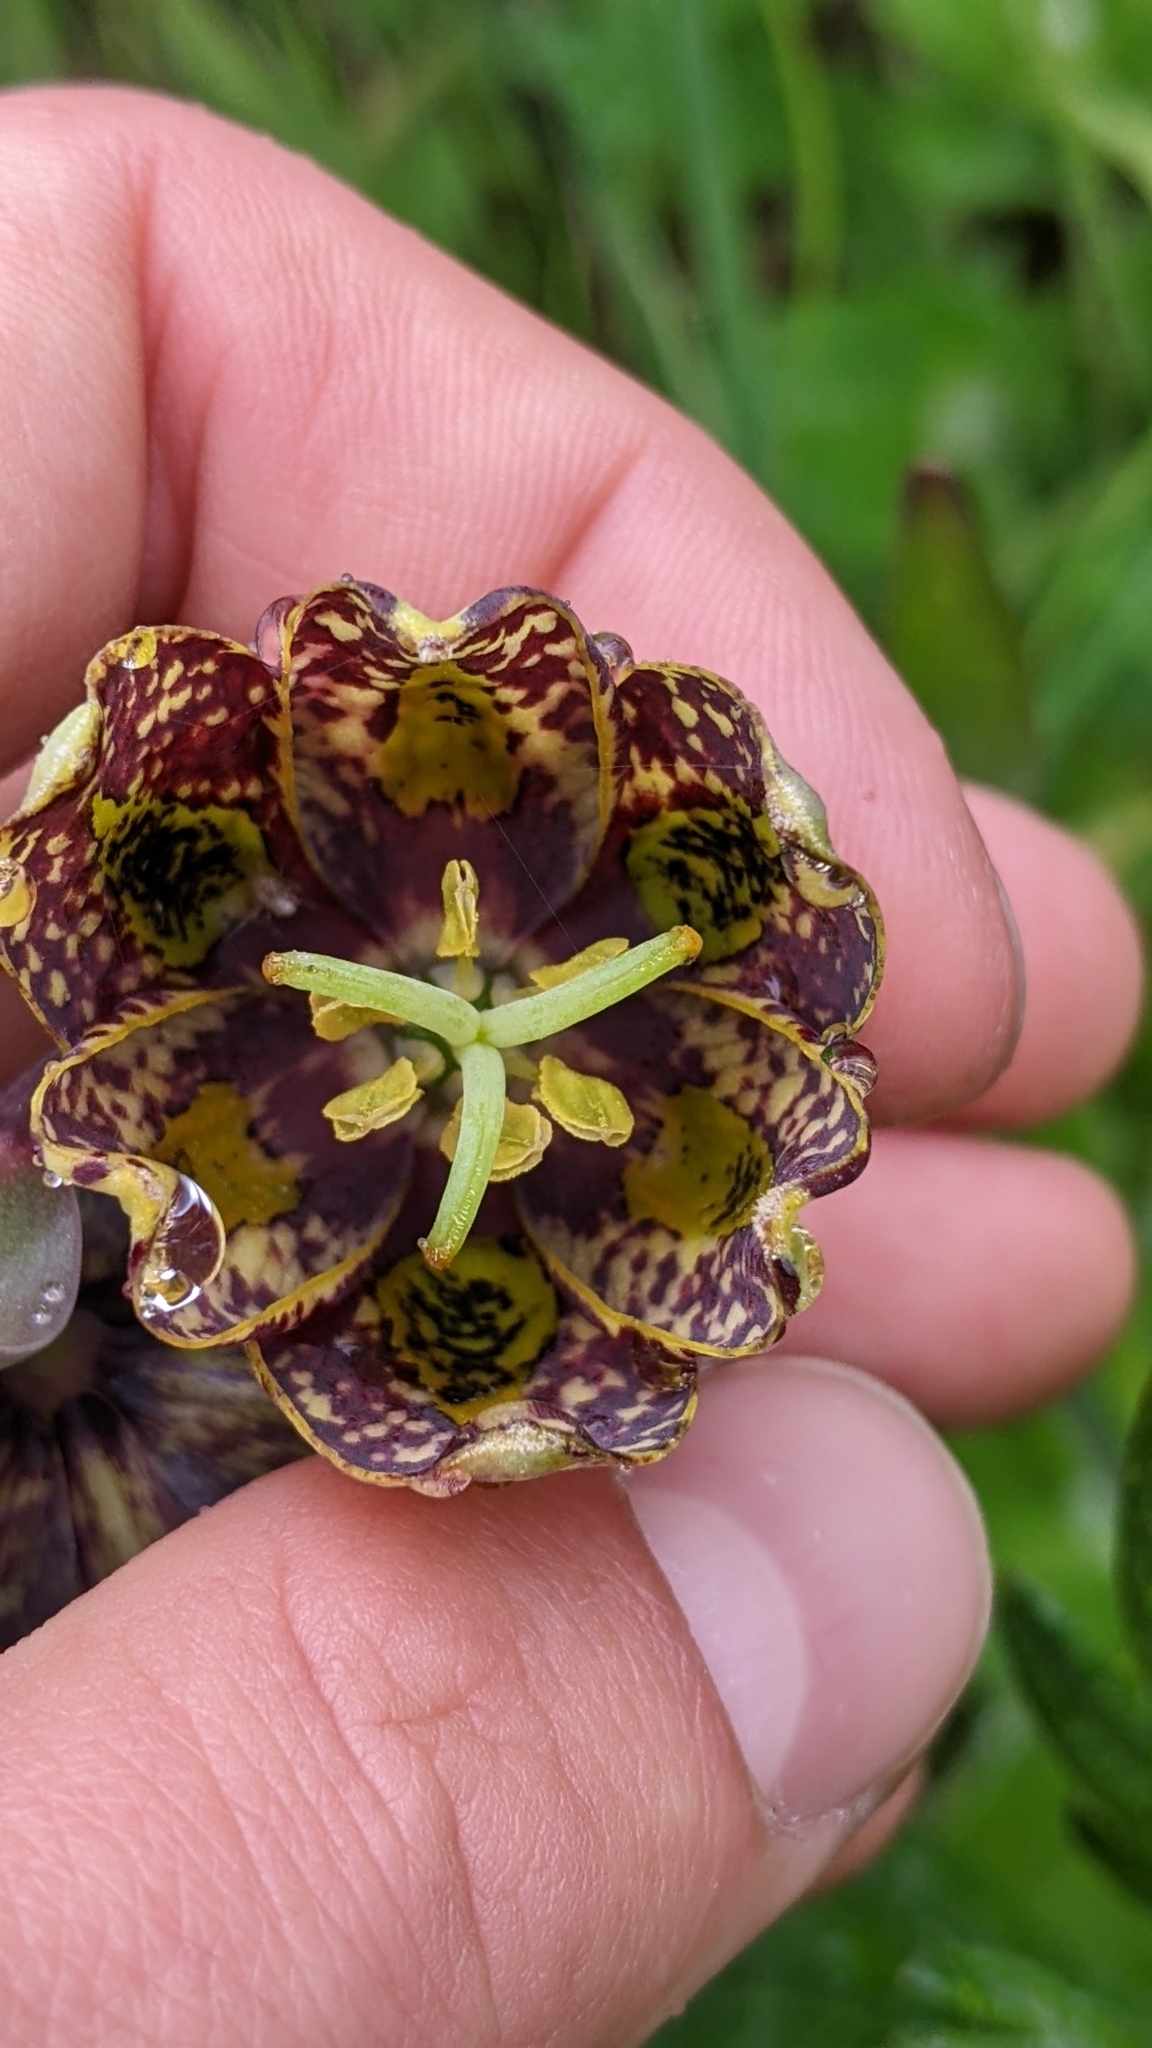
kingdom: Plantae
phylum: Tracheophyta
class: Liliopsida
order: Liliales
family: Liliaceae
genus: Fritillaria
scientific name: Fritillaria affinis
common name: Ojai fritillary
